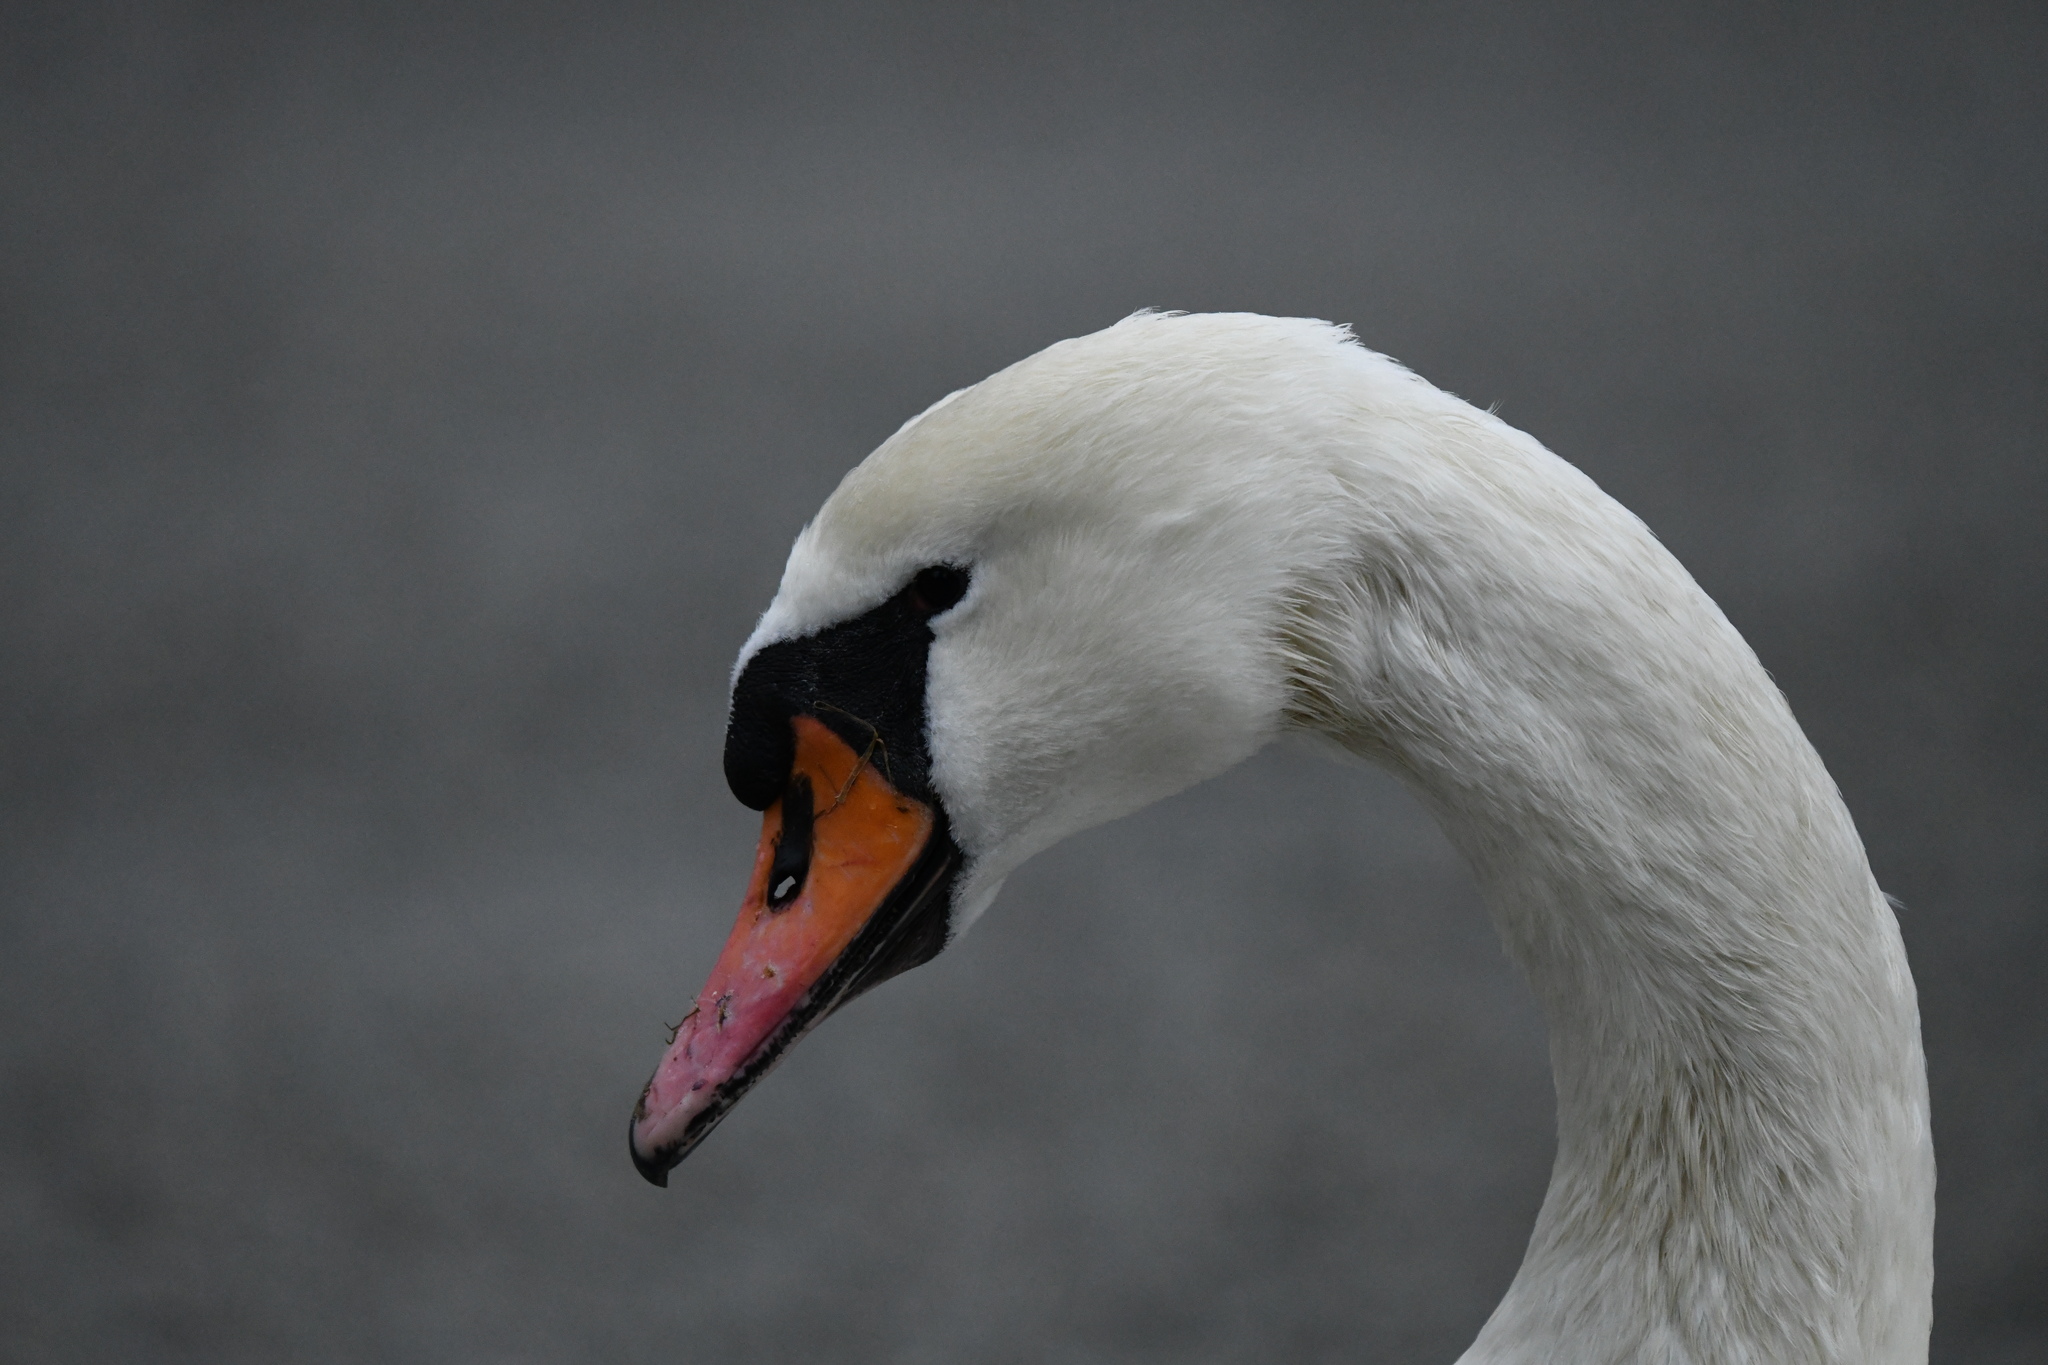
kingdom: Animalia
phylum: Chordata
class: Aves
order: Anseriformes
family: Anatidae
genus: Cygnus
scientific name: Cygnus olor
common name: Mute swan
